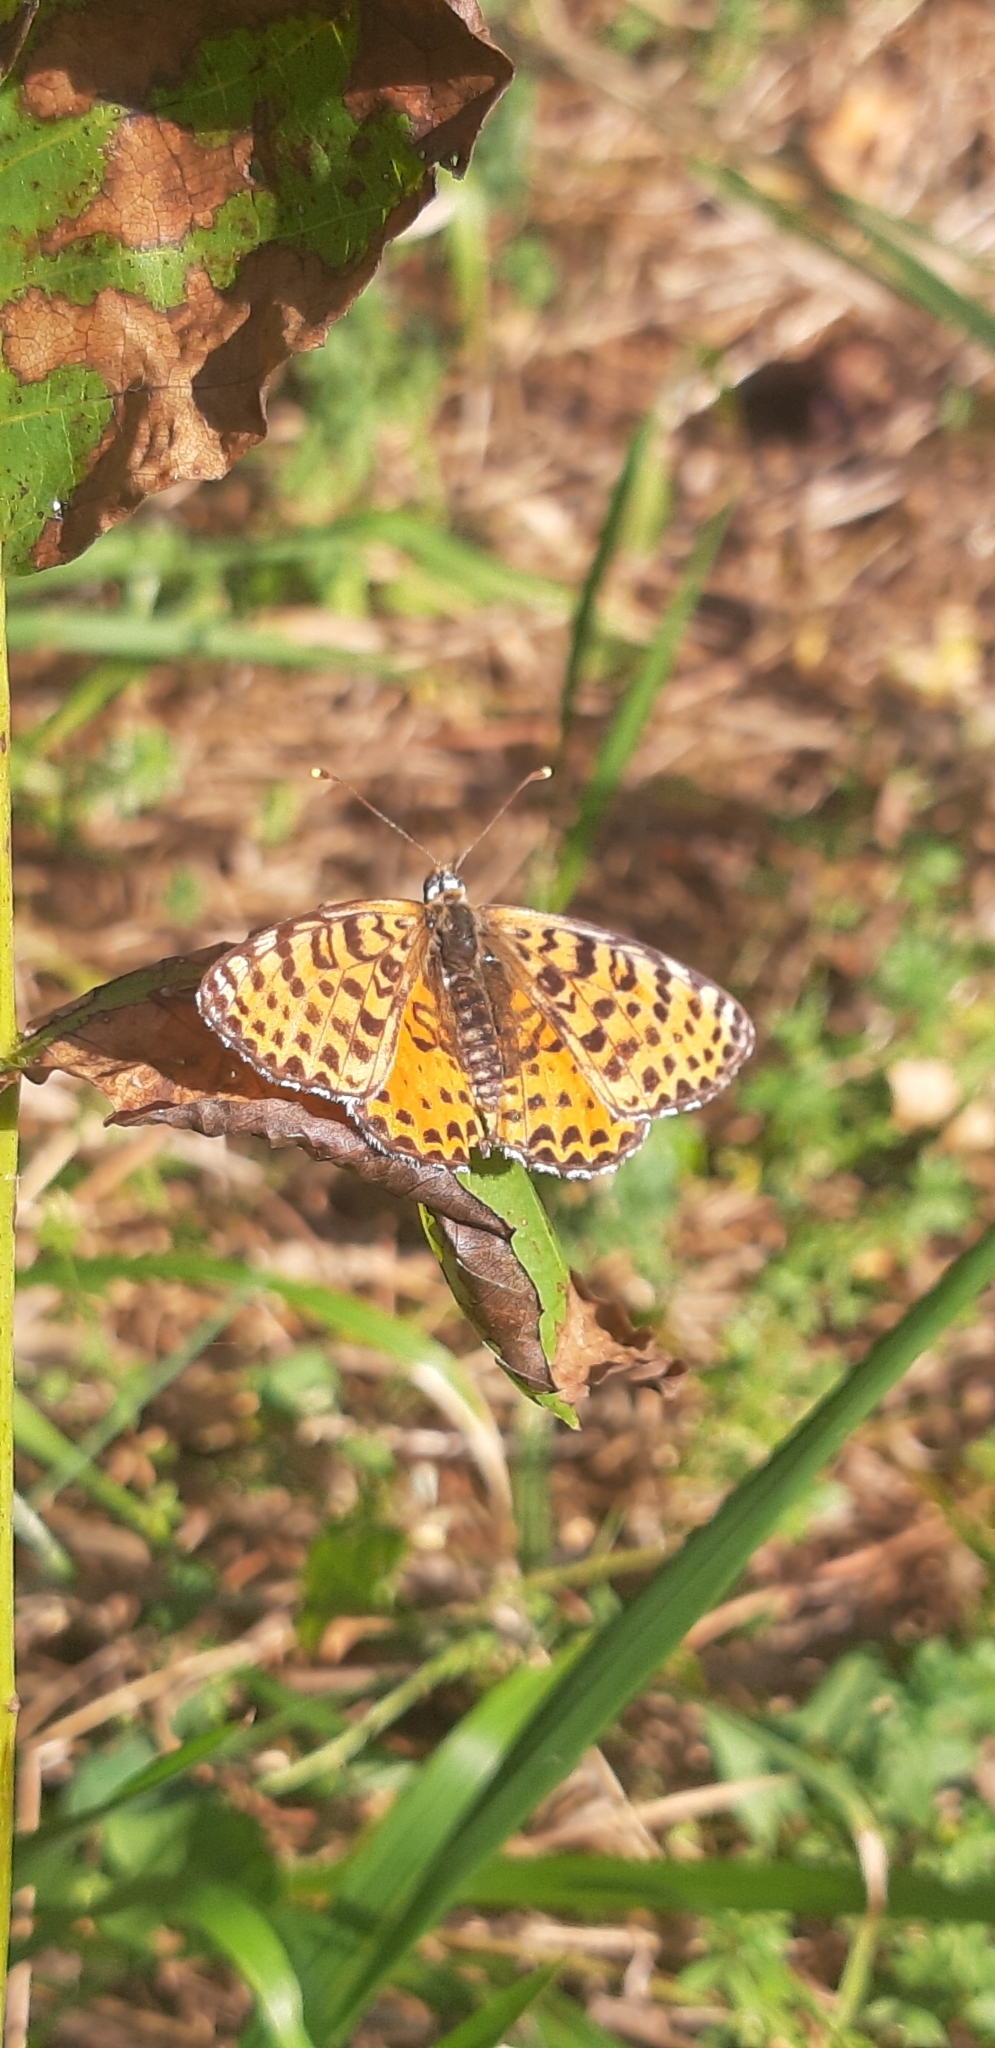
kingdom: Animalia
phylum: Arthropoda
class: Insecta
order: Lepidoptera
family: Nymphalidae
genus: Melitaea
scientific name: Melitaea didyma
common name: Spotted fritillary
